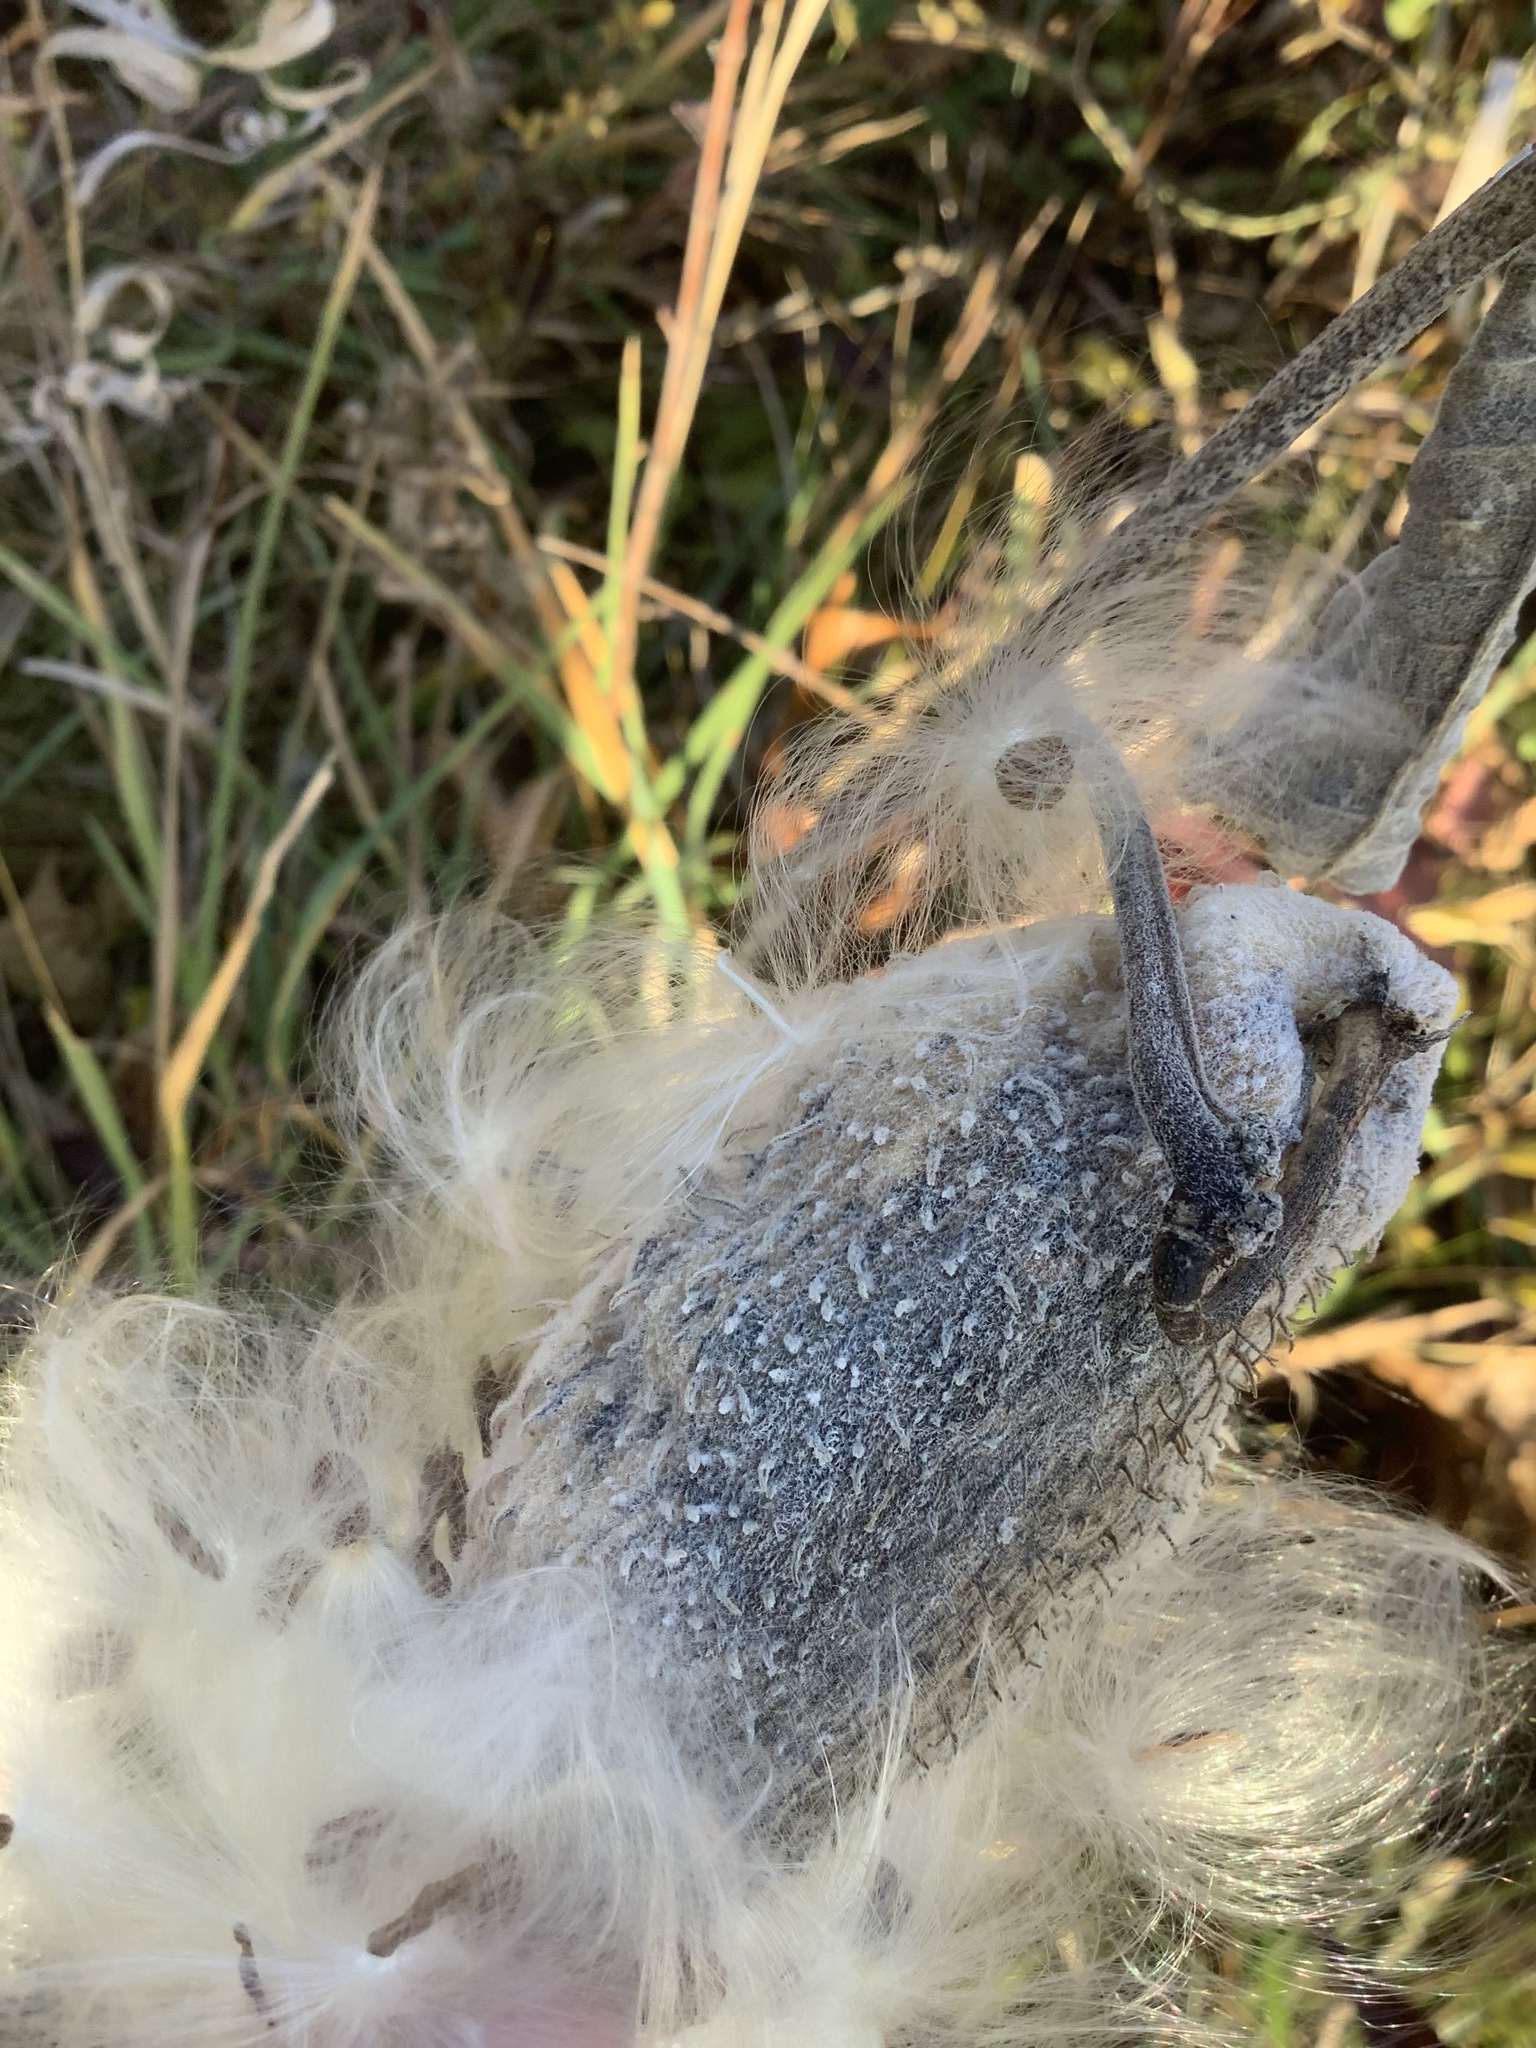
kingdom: Plantae
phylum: Tracheophyta
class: Magnoliopsida
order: Gentianales
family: Apocynaceae
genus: Asclepias
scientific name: Asclepias syriaca
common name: Common milkweed
